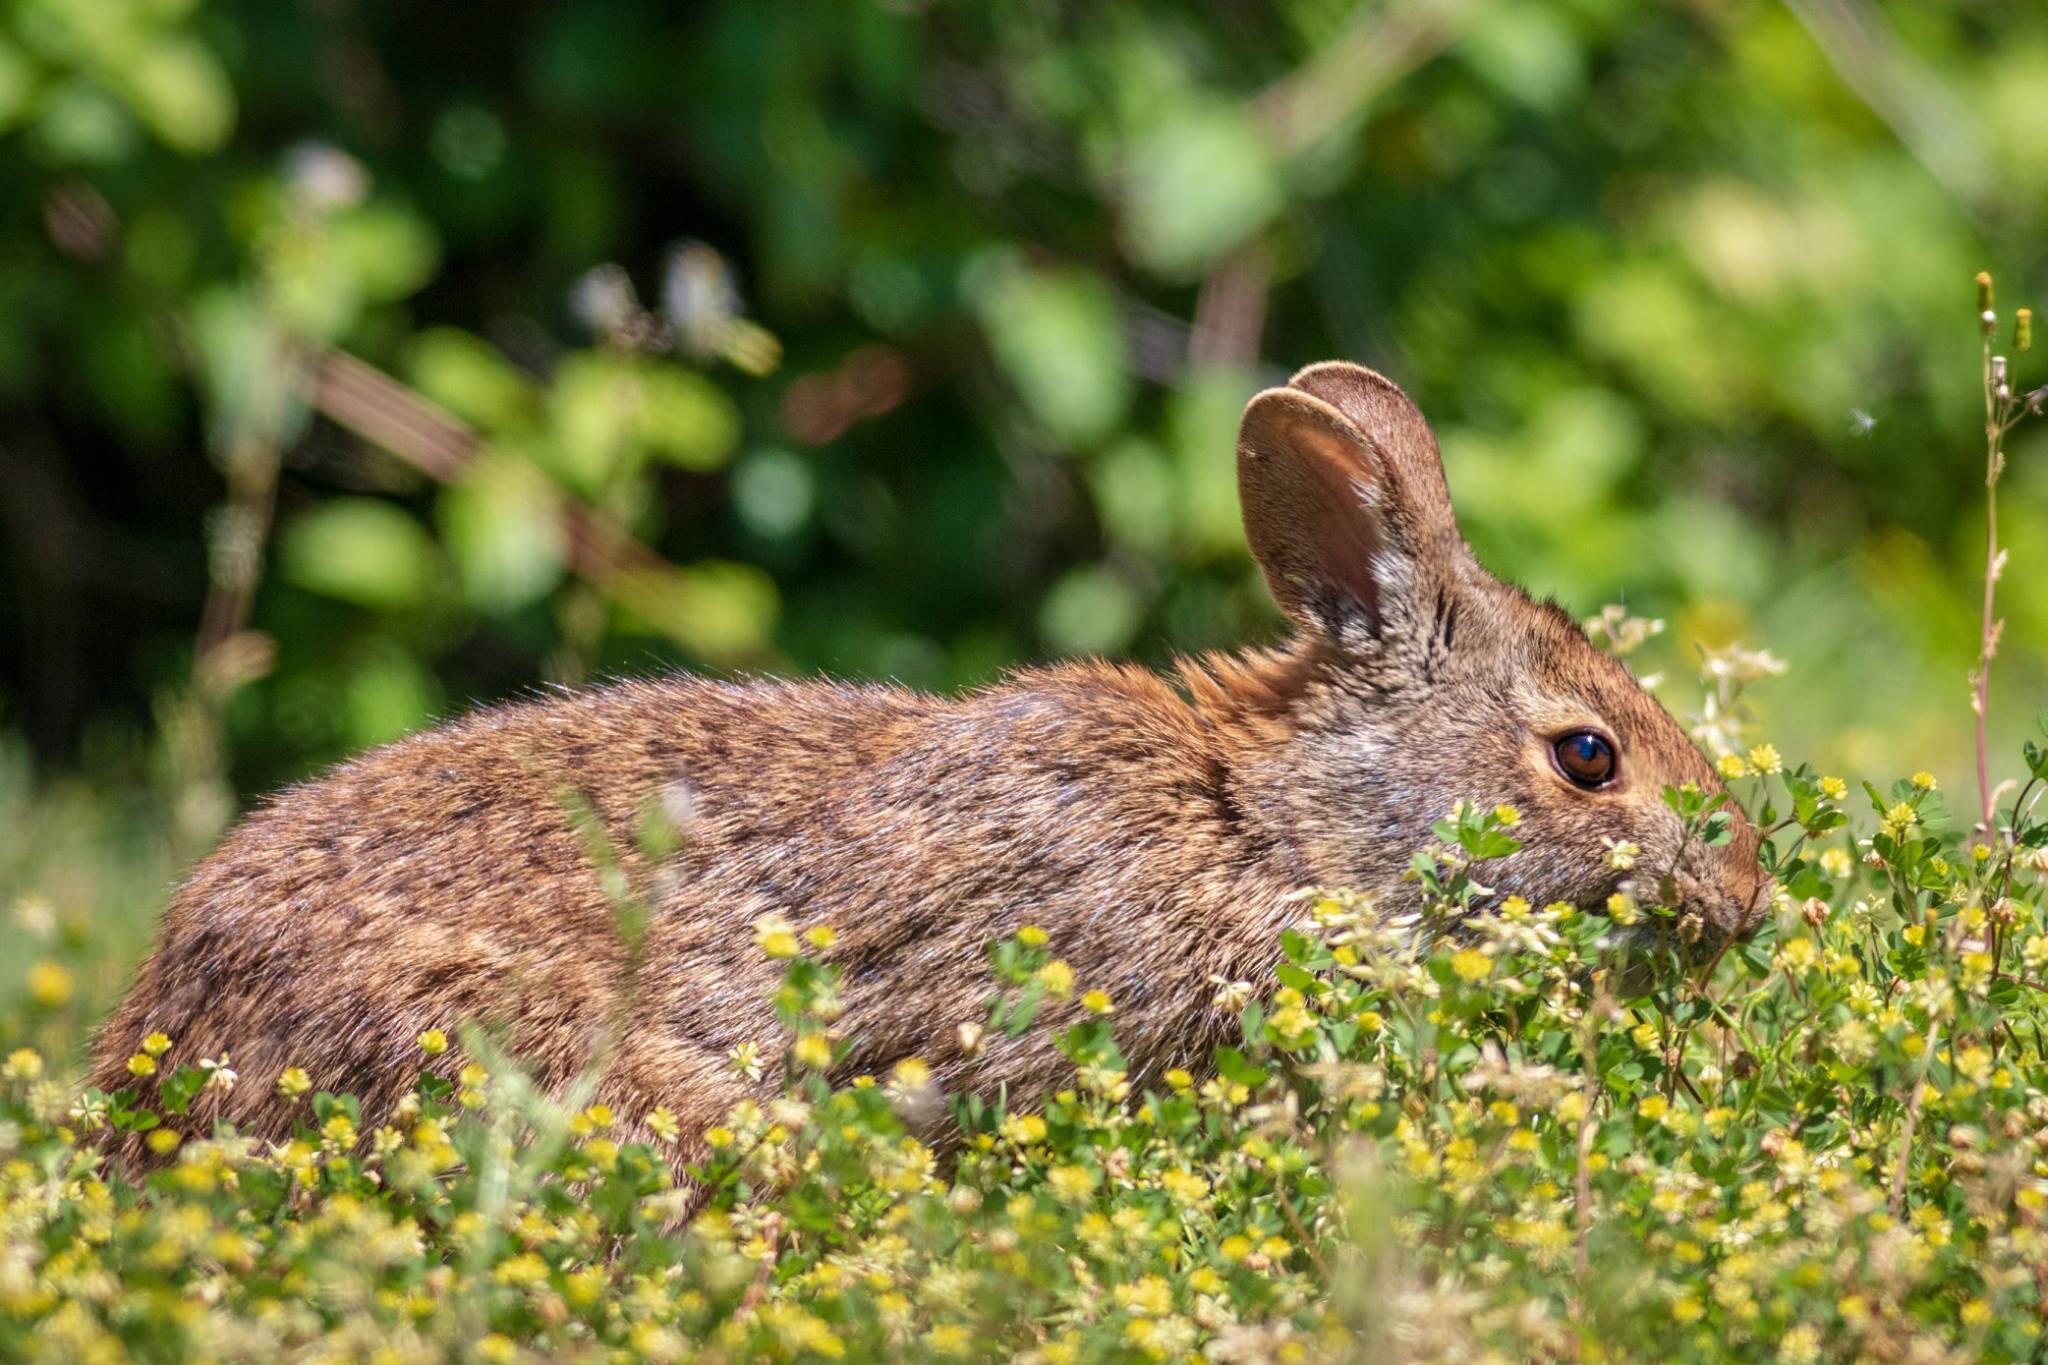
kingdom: Animalia
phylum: Chordata
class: Mammalia
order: Lagomorpha
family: Leporidae
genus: Sylvilagus
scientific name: Sylvilagus palustris
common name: Marsh rabbit
